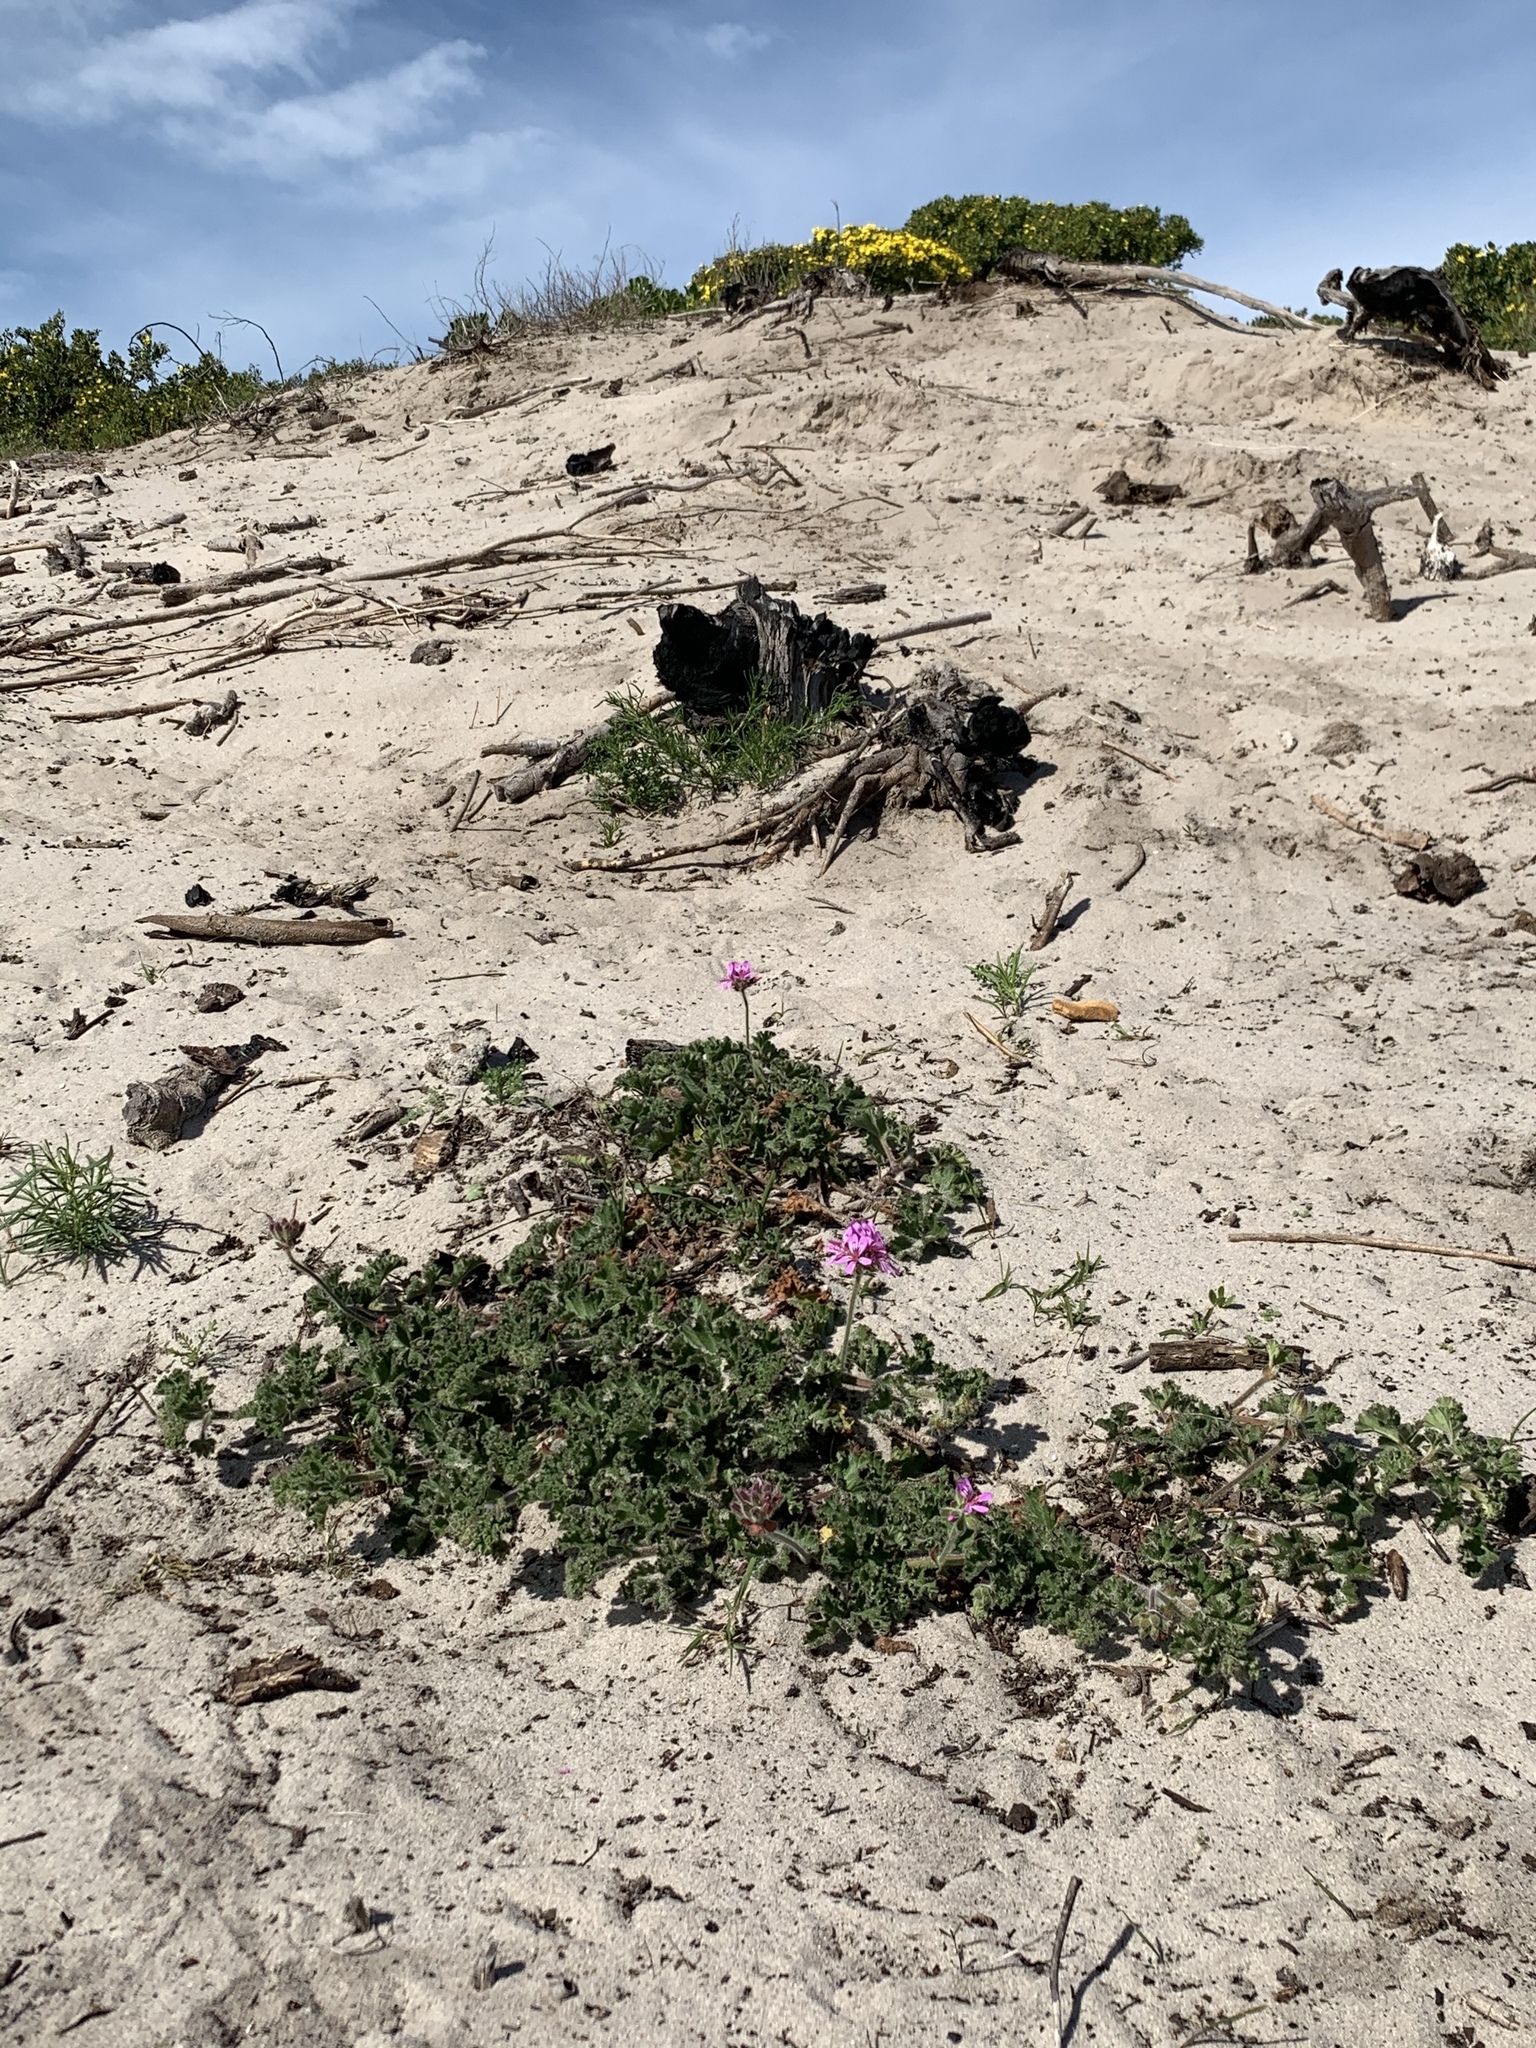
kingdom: Plantae
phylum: Tracheophyta
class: Magnoliopsida
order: Geraniales
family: Geraniaceae
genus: Pelargonium
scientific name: Pelargonium capitatum
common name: Rose scented geranium
